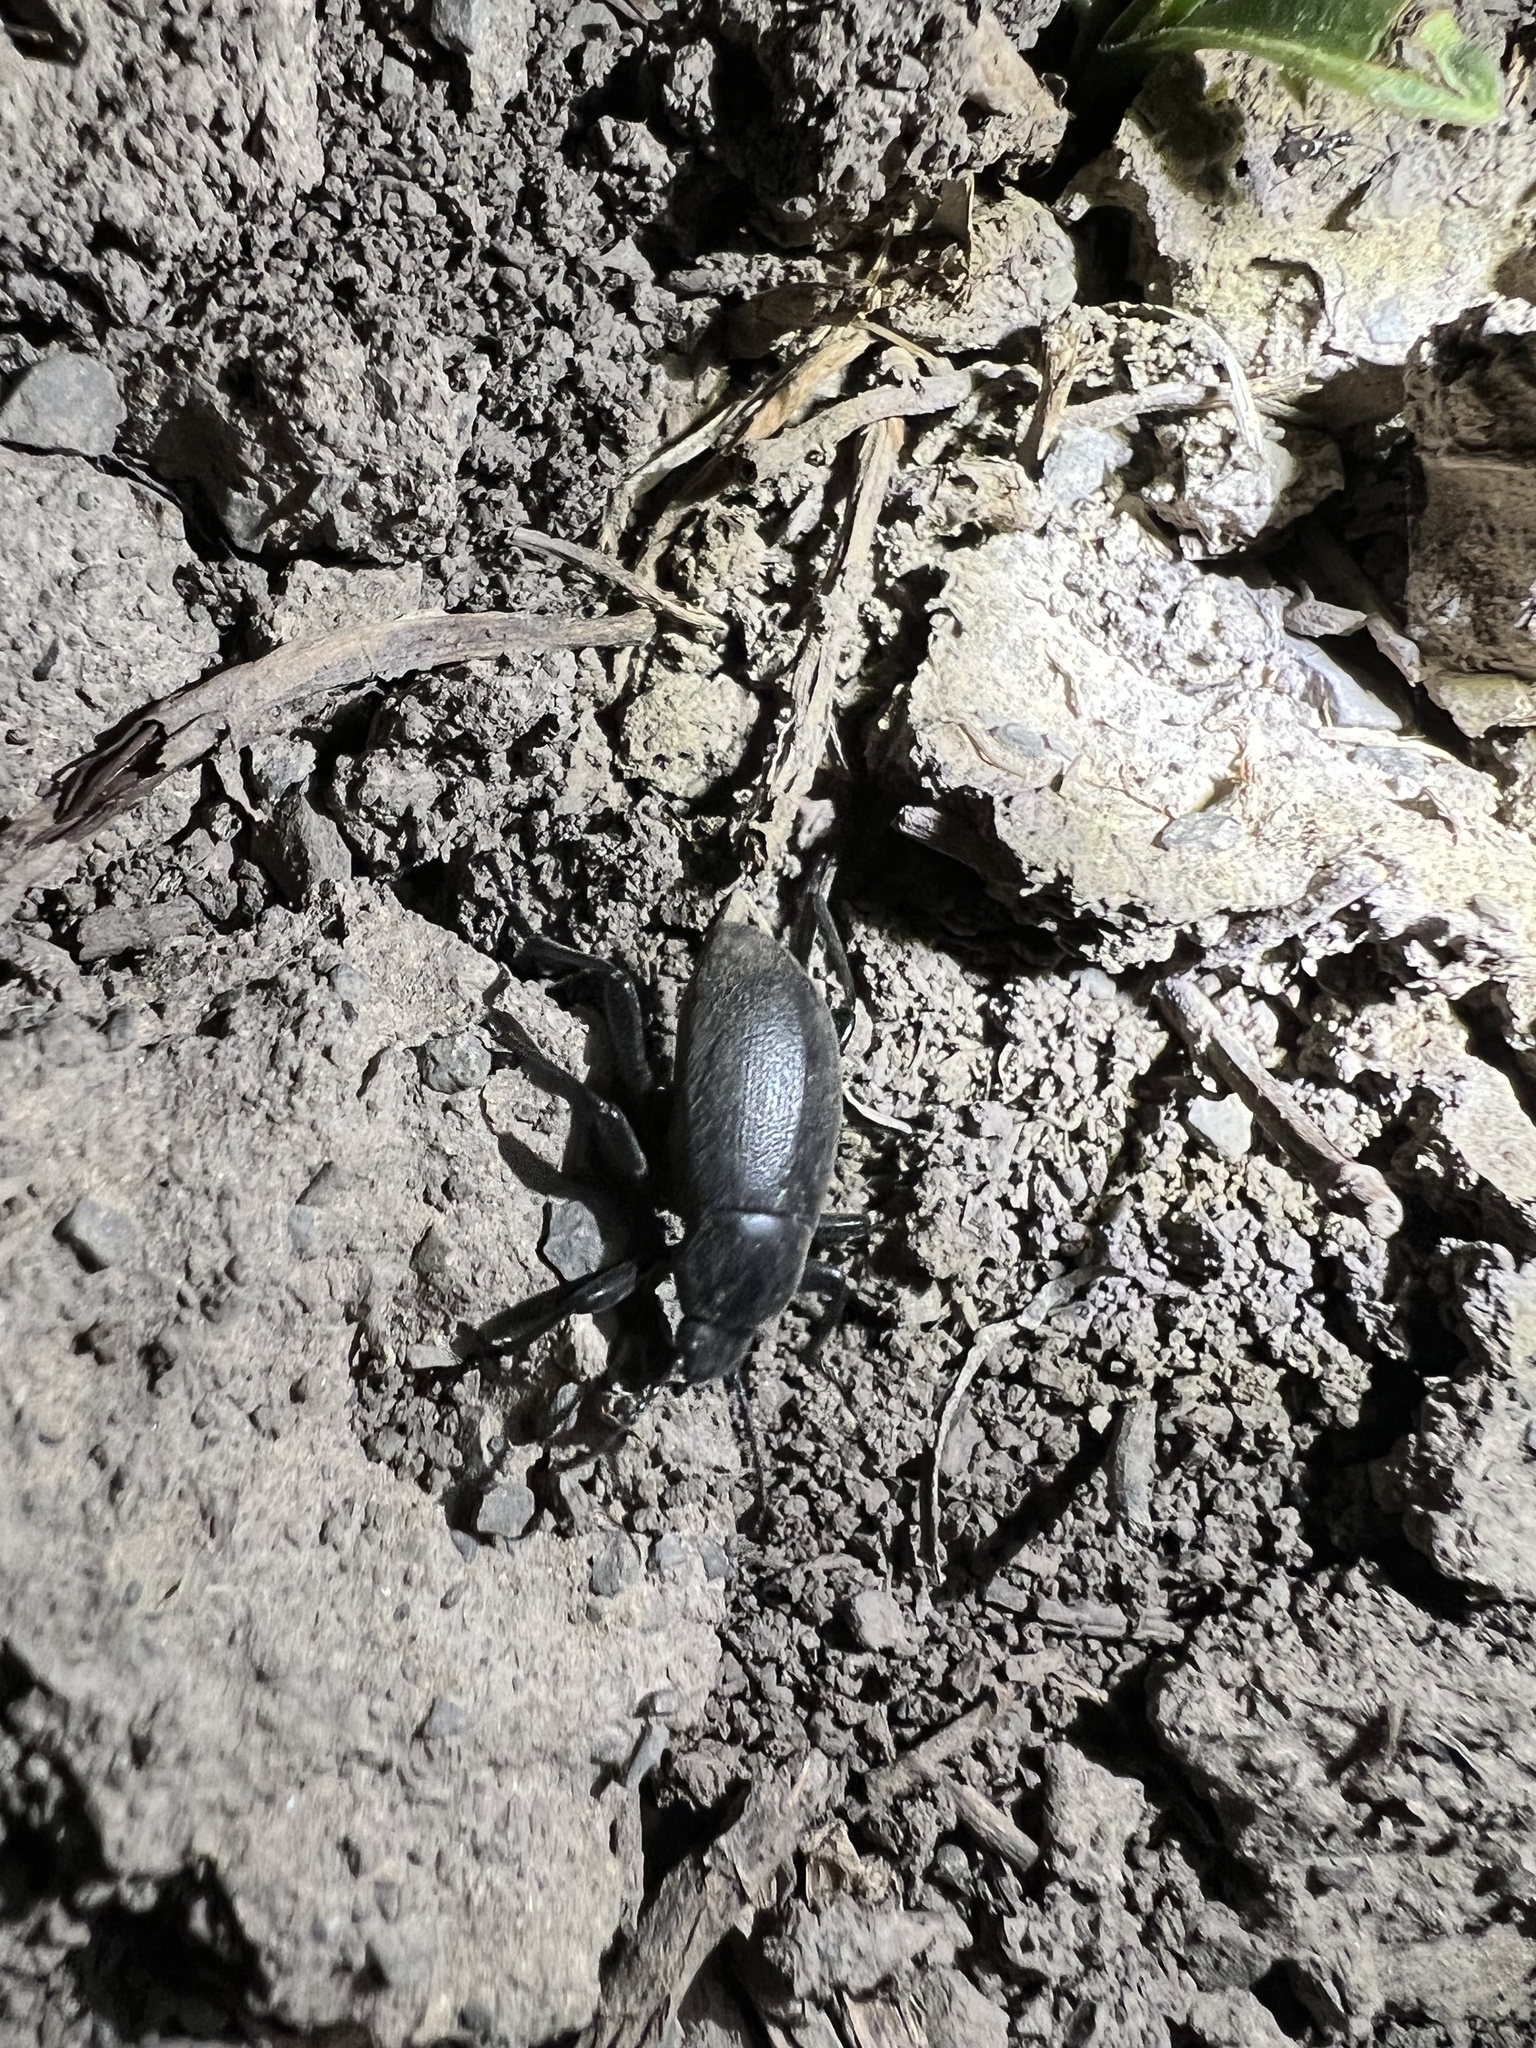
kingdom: Animalia
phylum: Arthropoda
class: Insecta
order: Coleoptera
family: Tenebrionidae
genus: Eleodes
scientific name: Eleodes extricata
